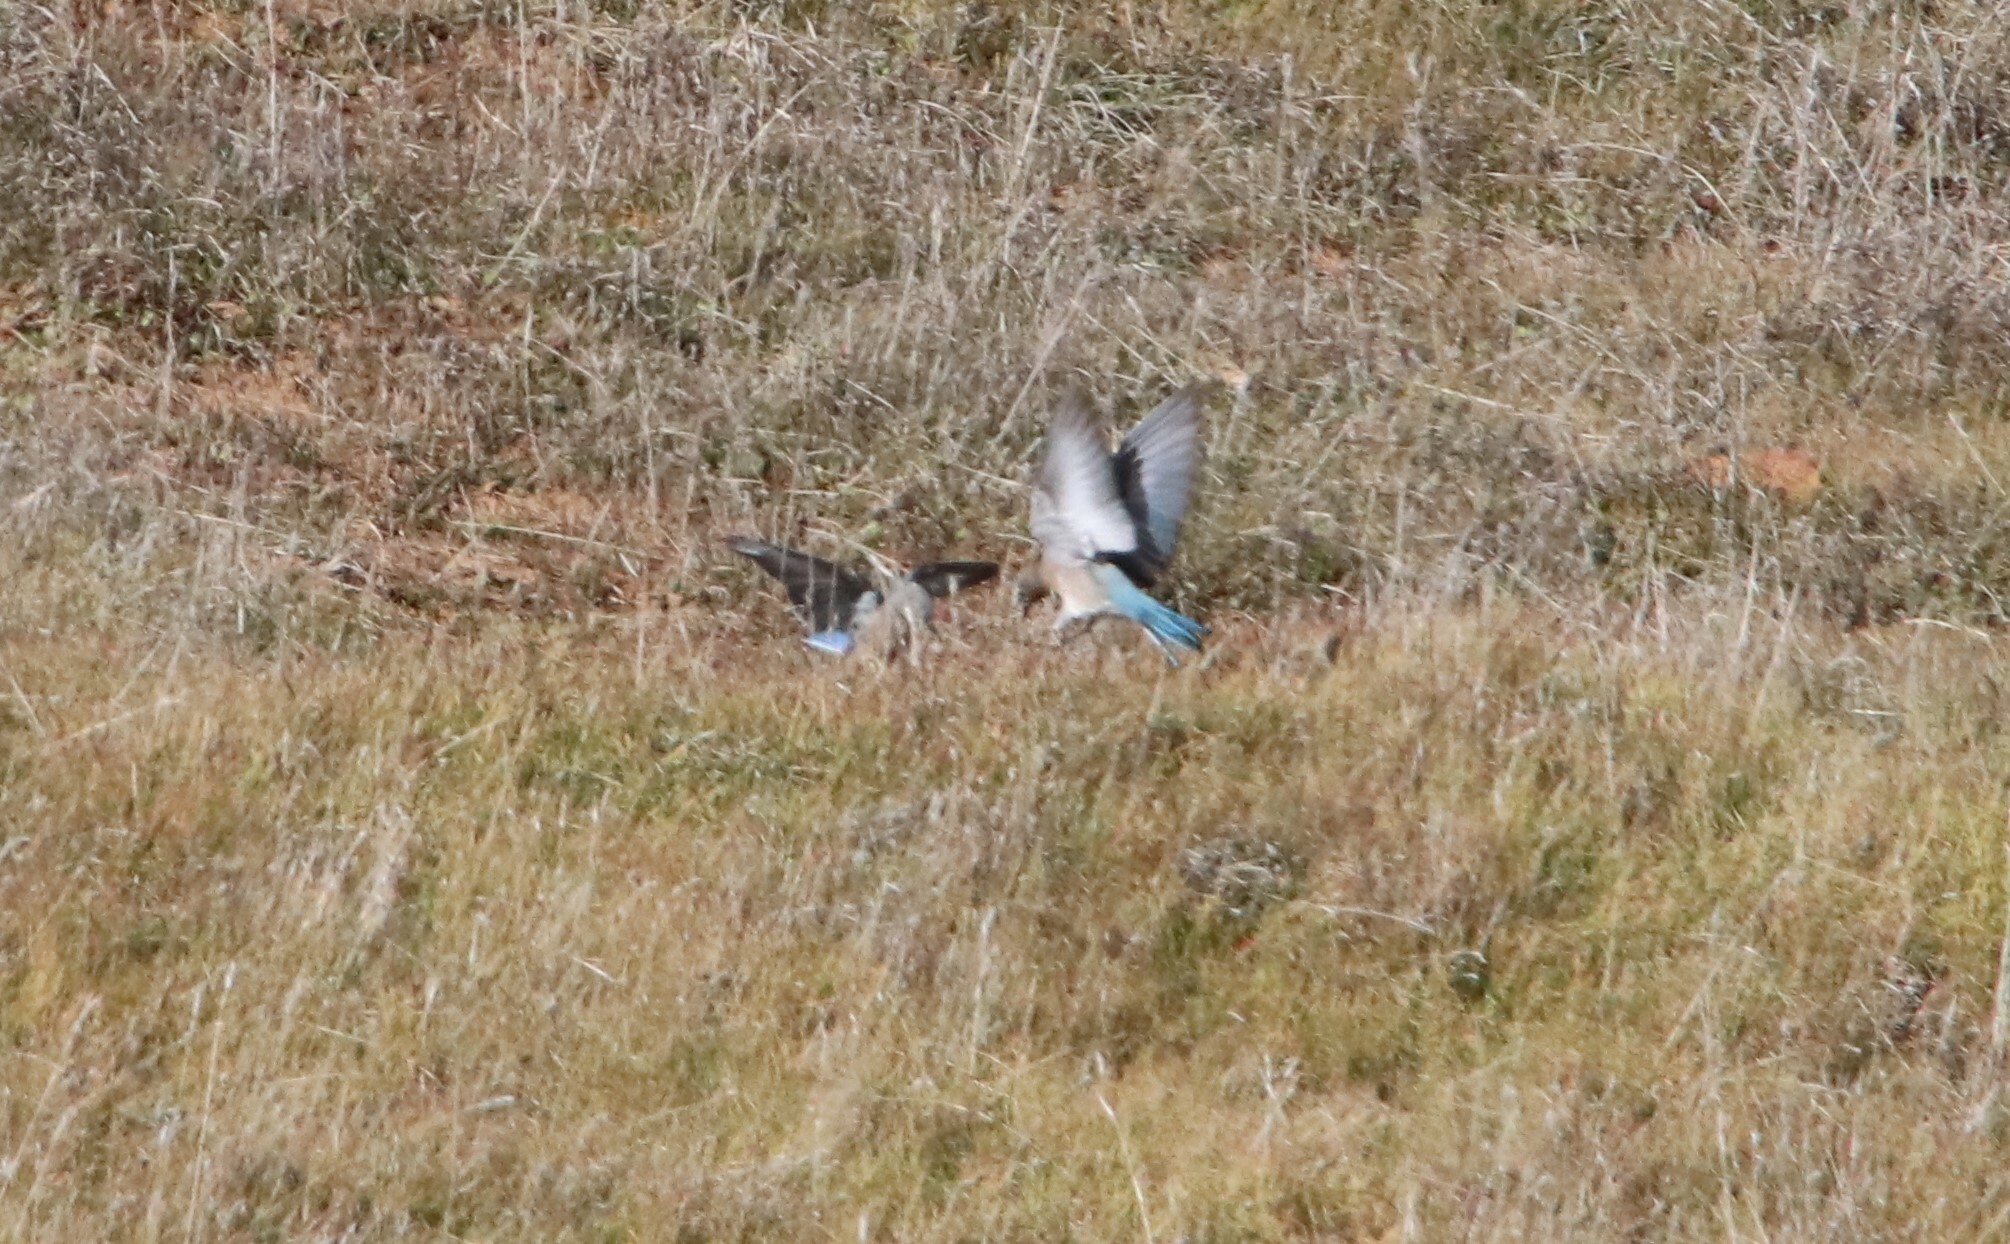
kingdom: Animalia
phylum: Chordata
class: Aves
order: Passeriformes
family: Turdidae
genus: Sialia
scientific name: Sialia currucoides
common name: Mountain bluebird
